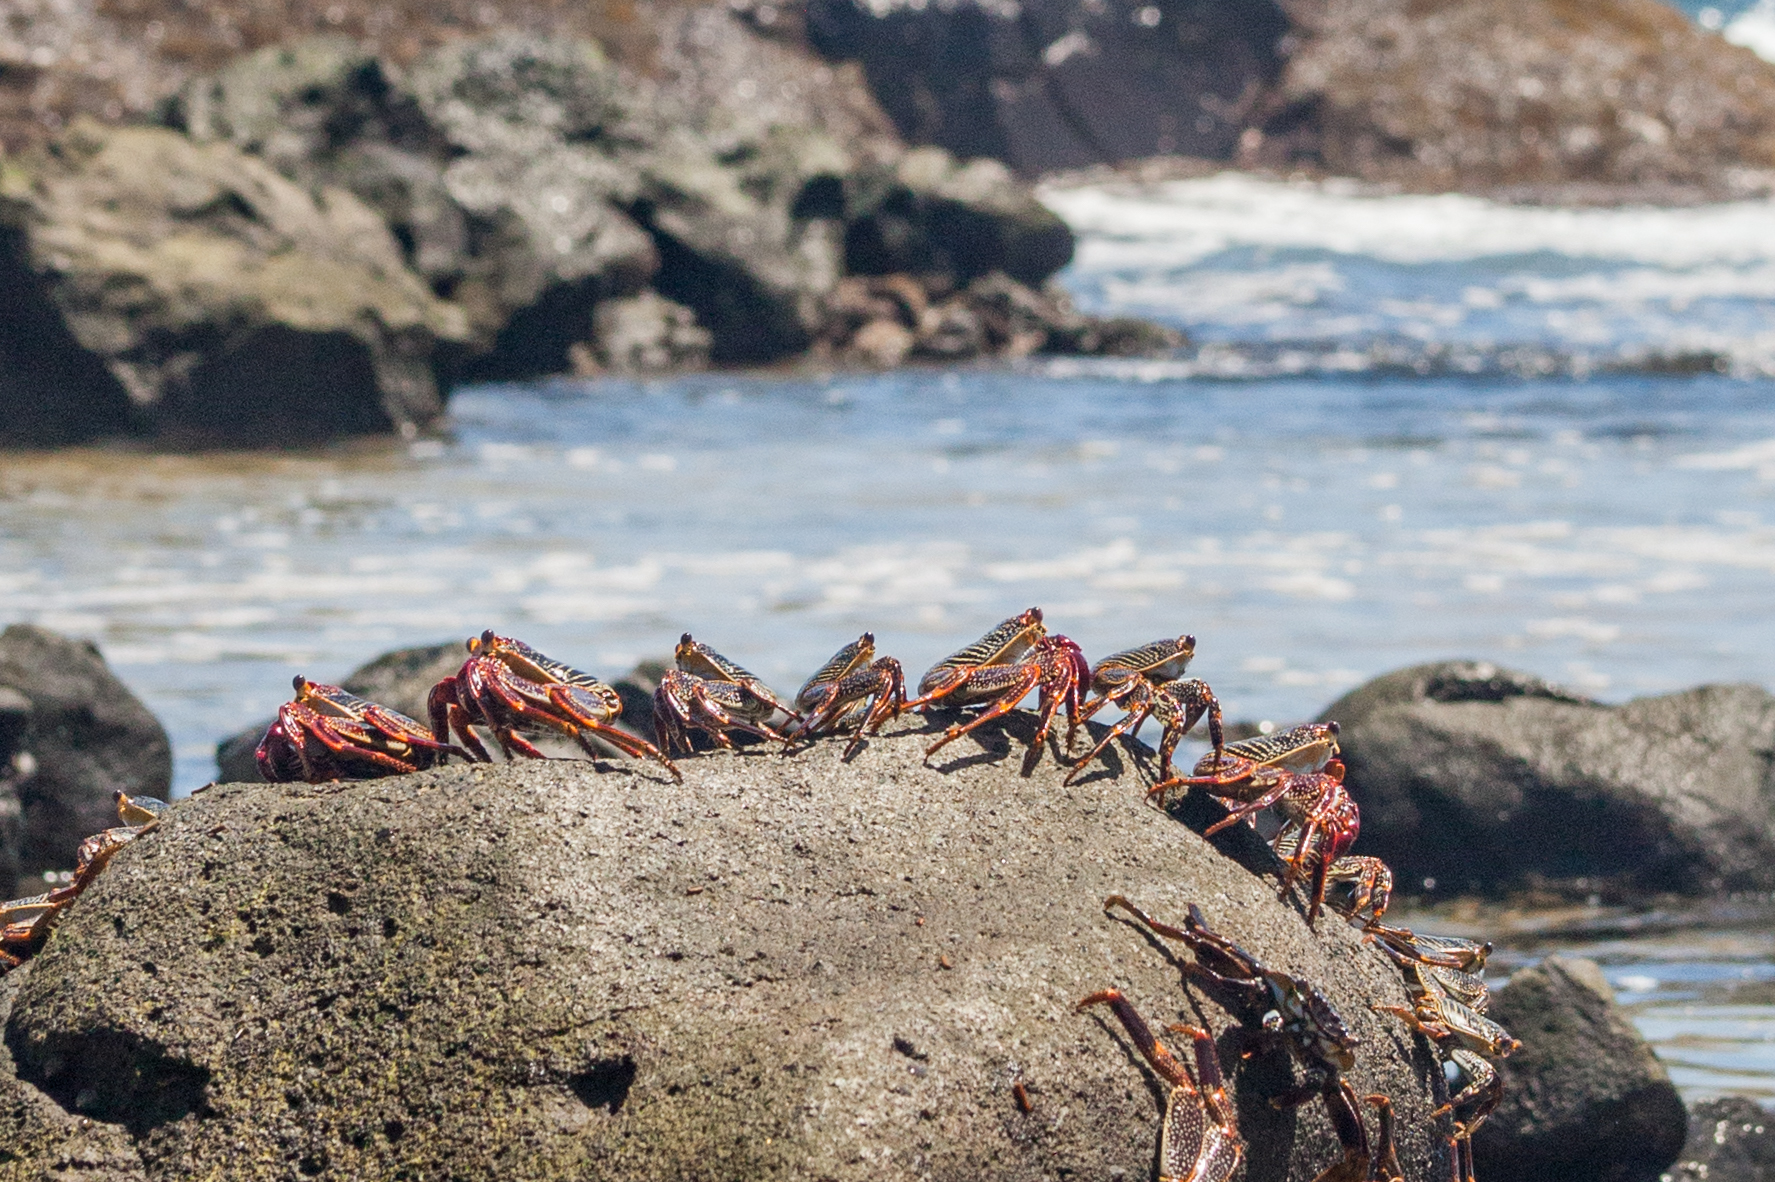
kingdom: Animalia
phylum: Arthropoda
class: Malacostraca
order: Decapoda
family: Grapsidae
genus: Grapsus
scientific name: Grapsus grapsus
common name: Sally lightfoot
